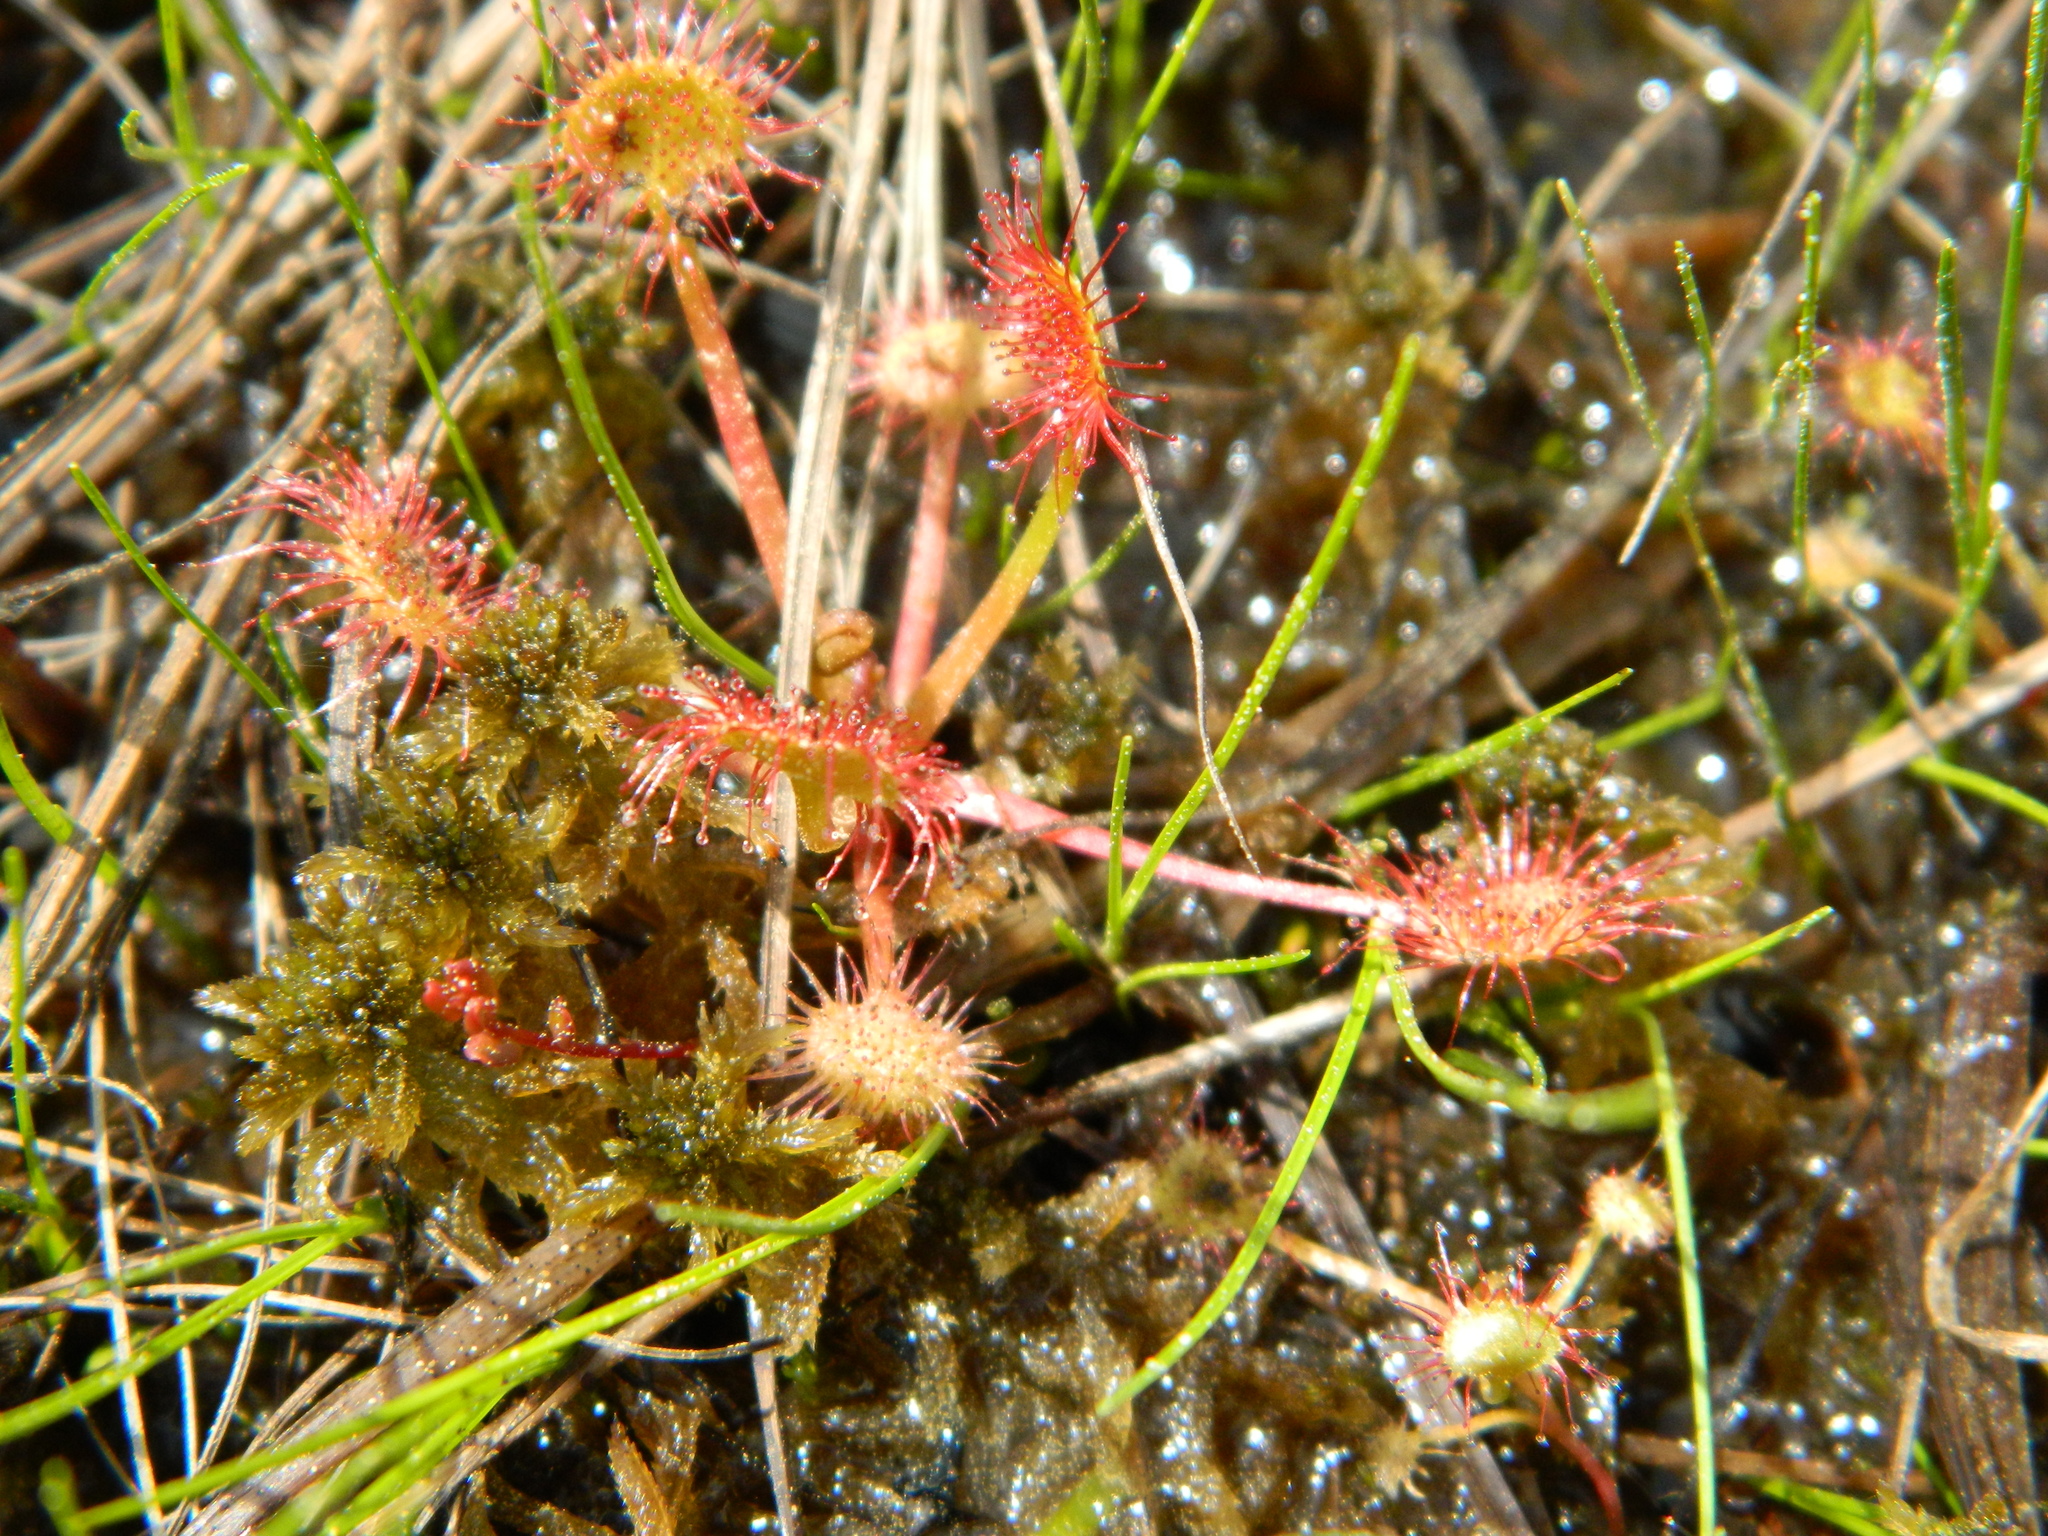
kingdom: Plantae
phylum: Tracheophyta
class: Magnoliopsida
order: Caryophyllales
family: Droseraceae
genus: Drosera
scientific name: Drosera rotundifolia
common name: Round-leaved sundew
